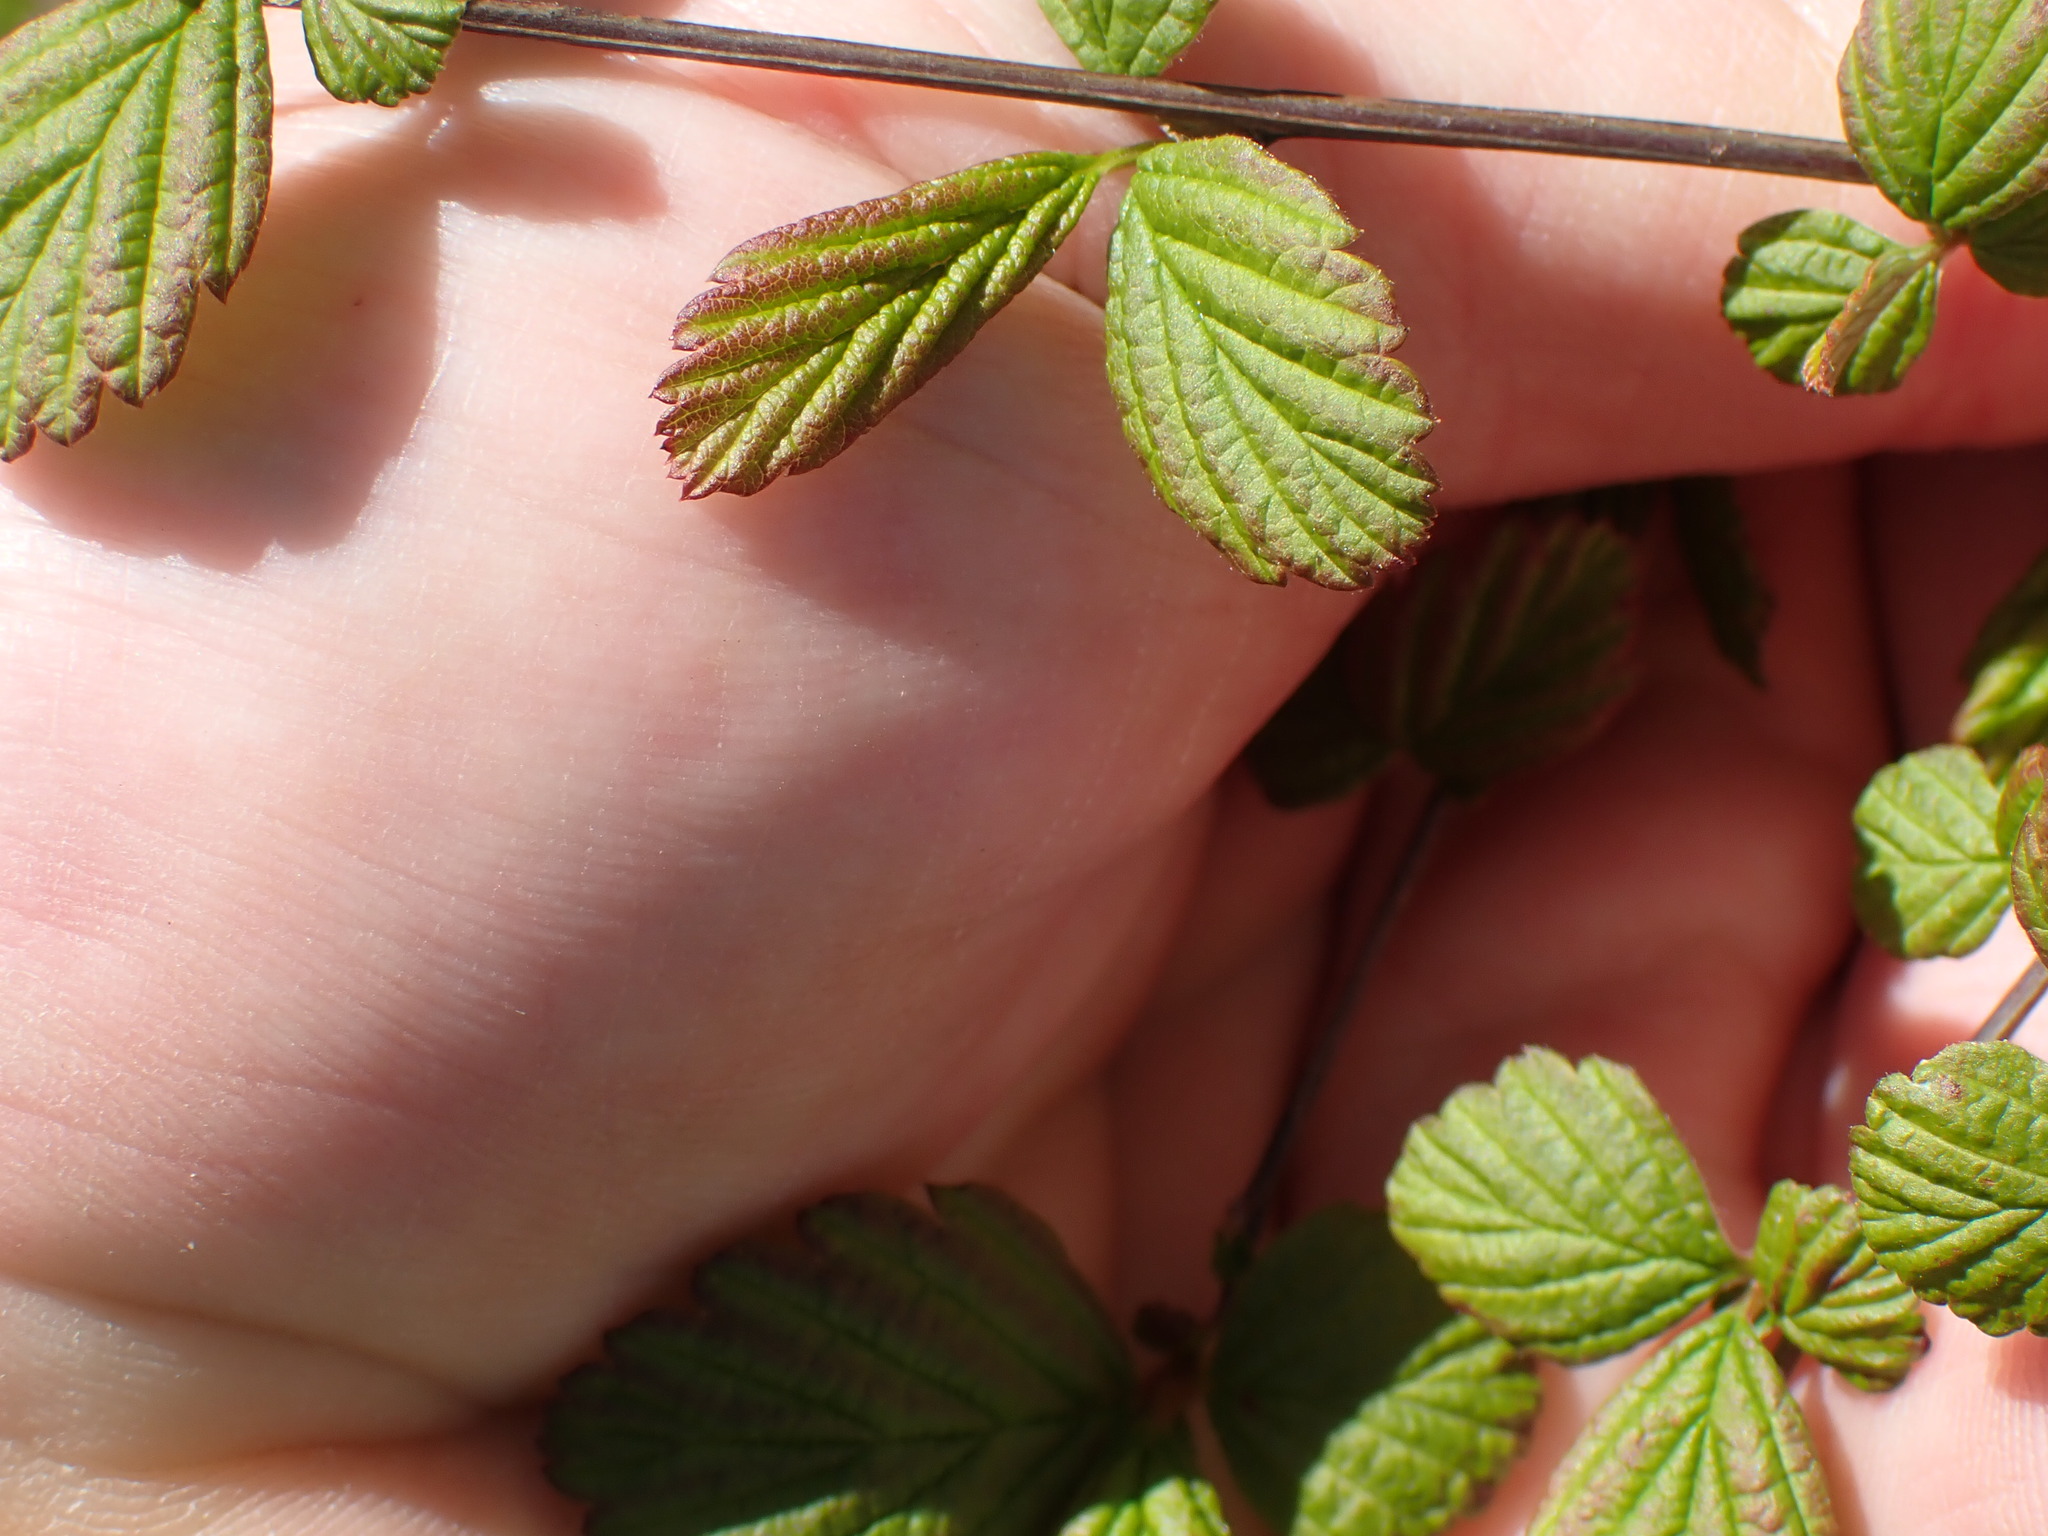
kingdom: Plantae
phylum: Tracheophyta
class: Magnoliopsida
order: Rosales
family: Rosaceae
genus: Holodiscus
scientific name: Holodiscus discolor
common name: Oceanspray
